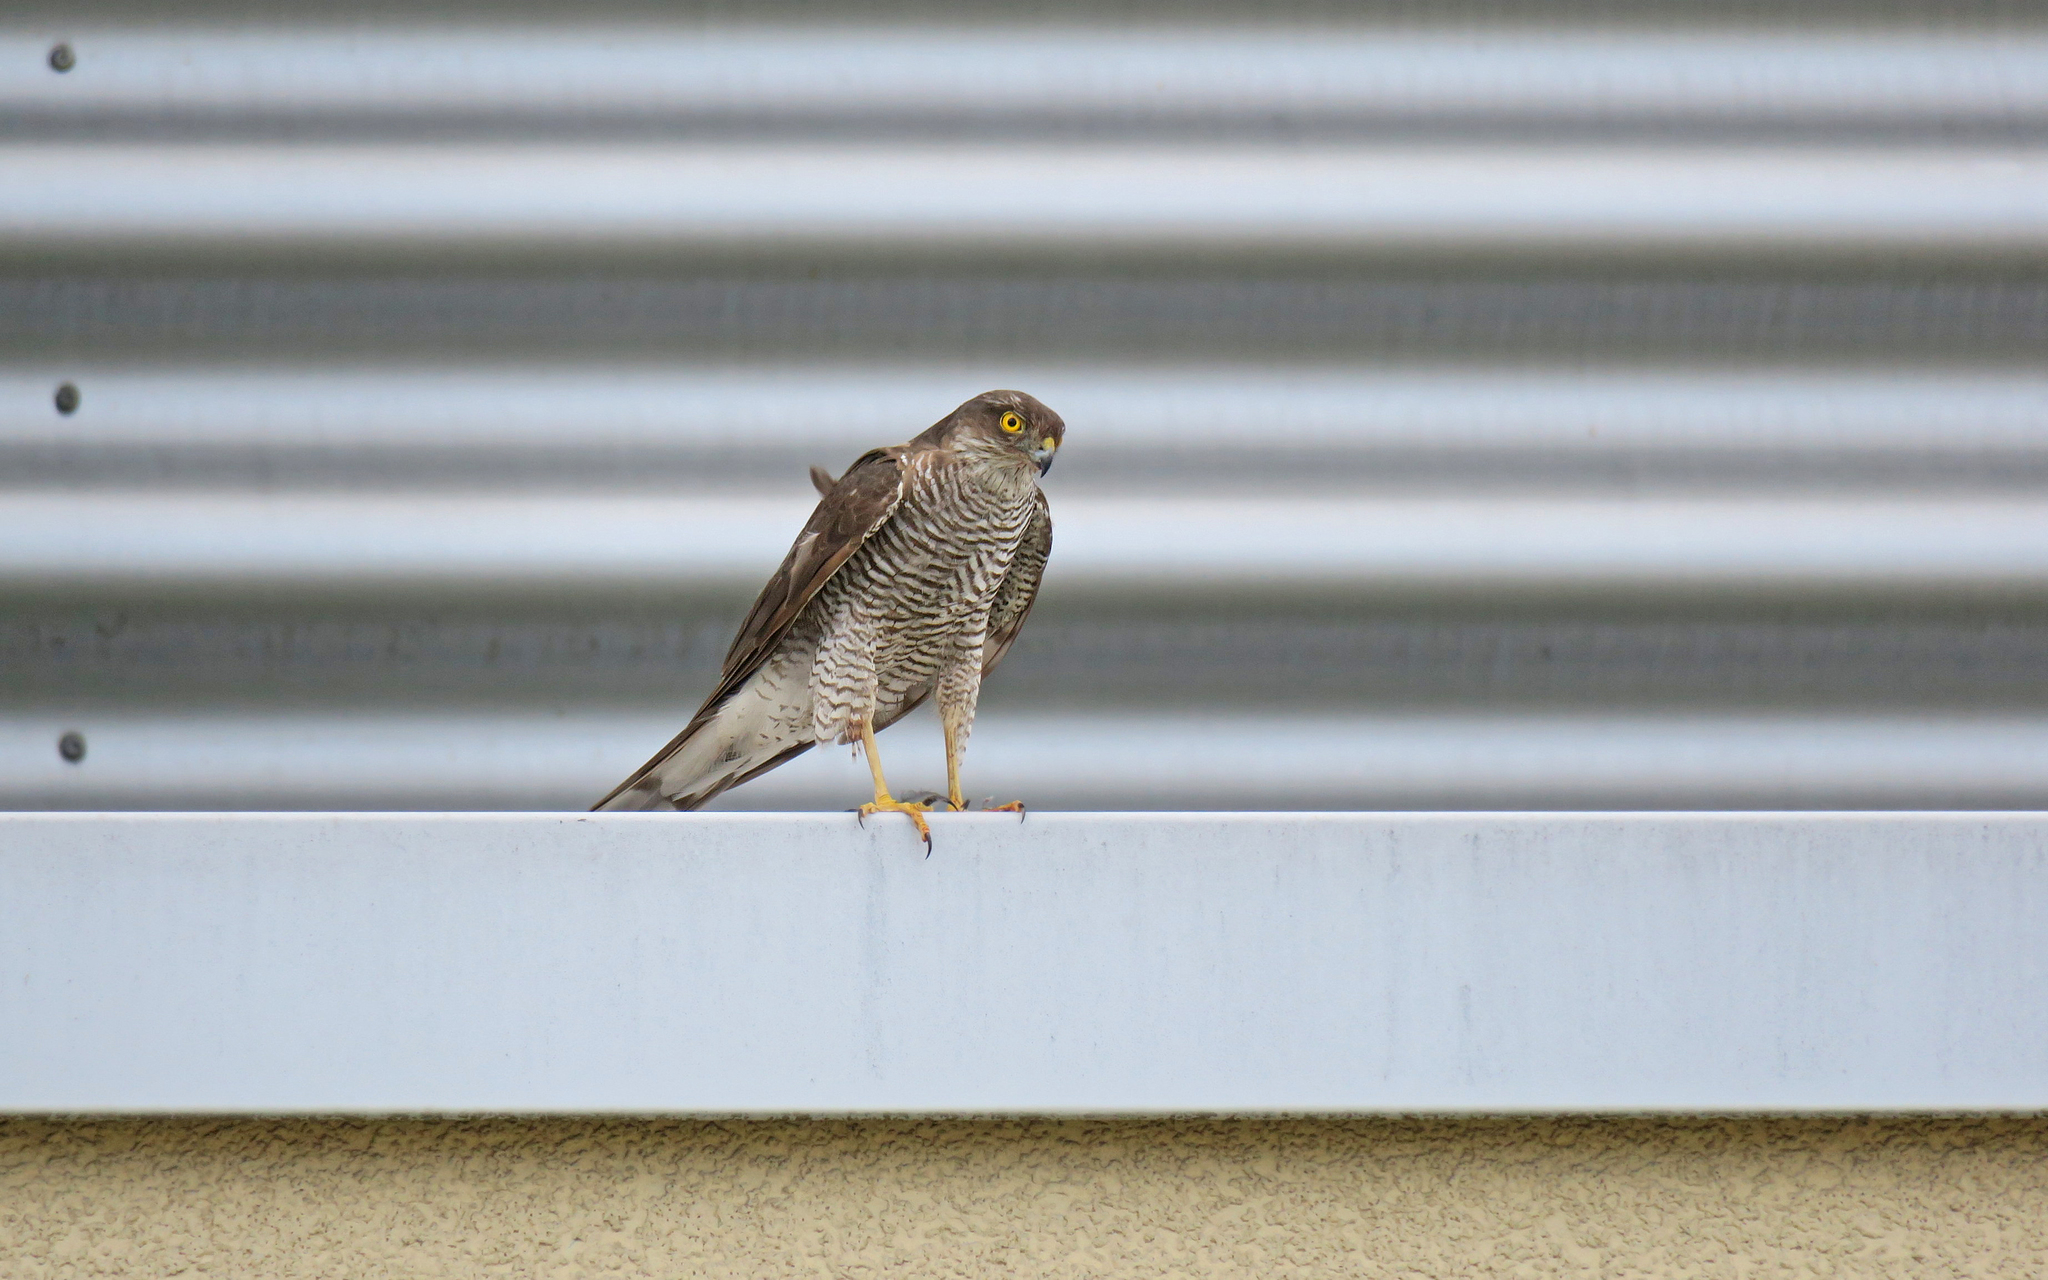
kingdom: Animalia
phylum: Chordata
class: Aves
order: Accipitriformes
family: Accipitridae
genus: Accipiter
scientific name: Accipiter nisus
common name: Eurasian sparrowhawk
